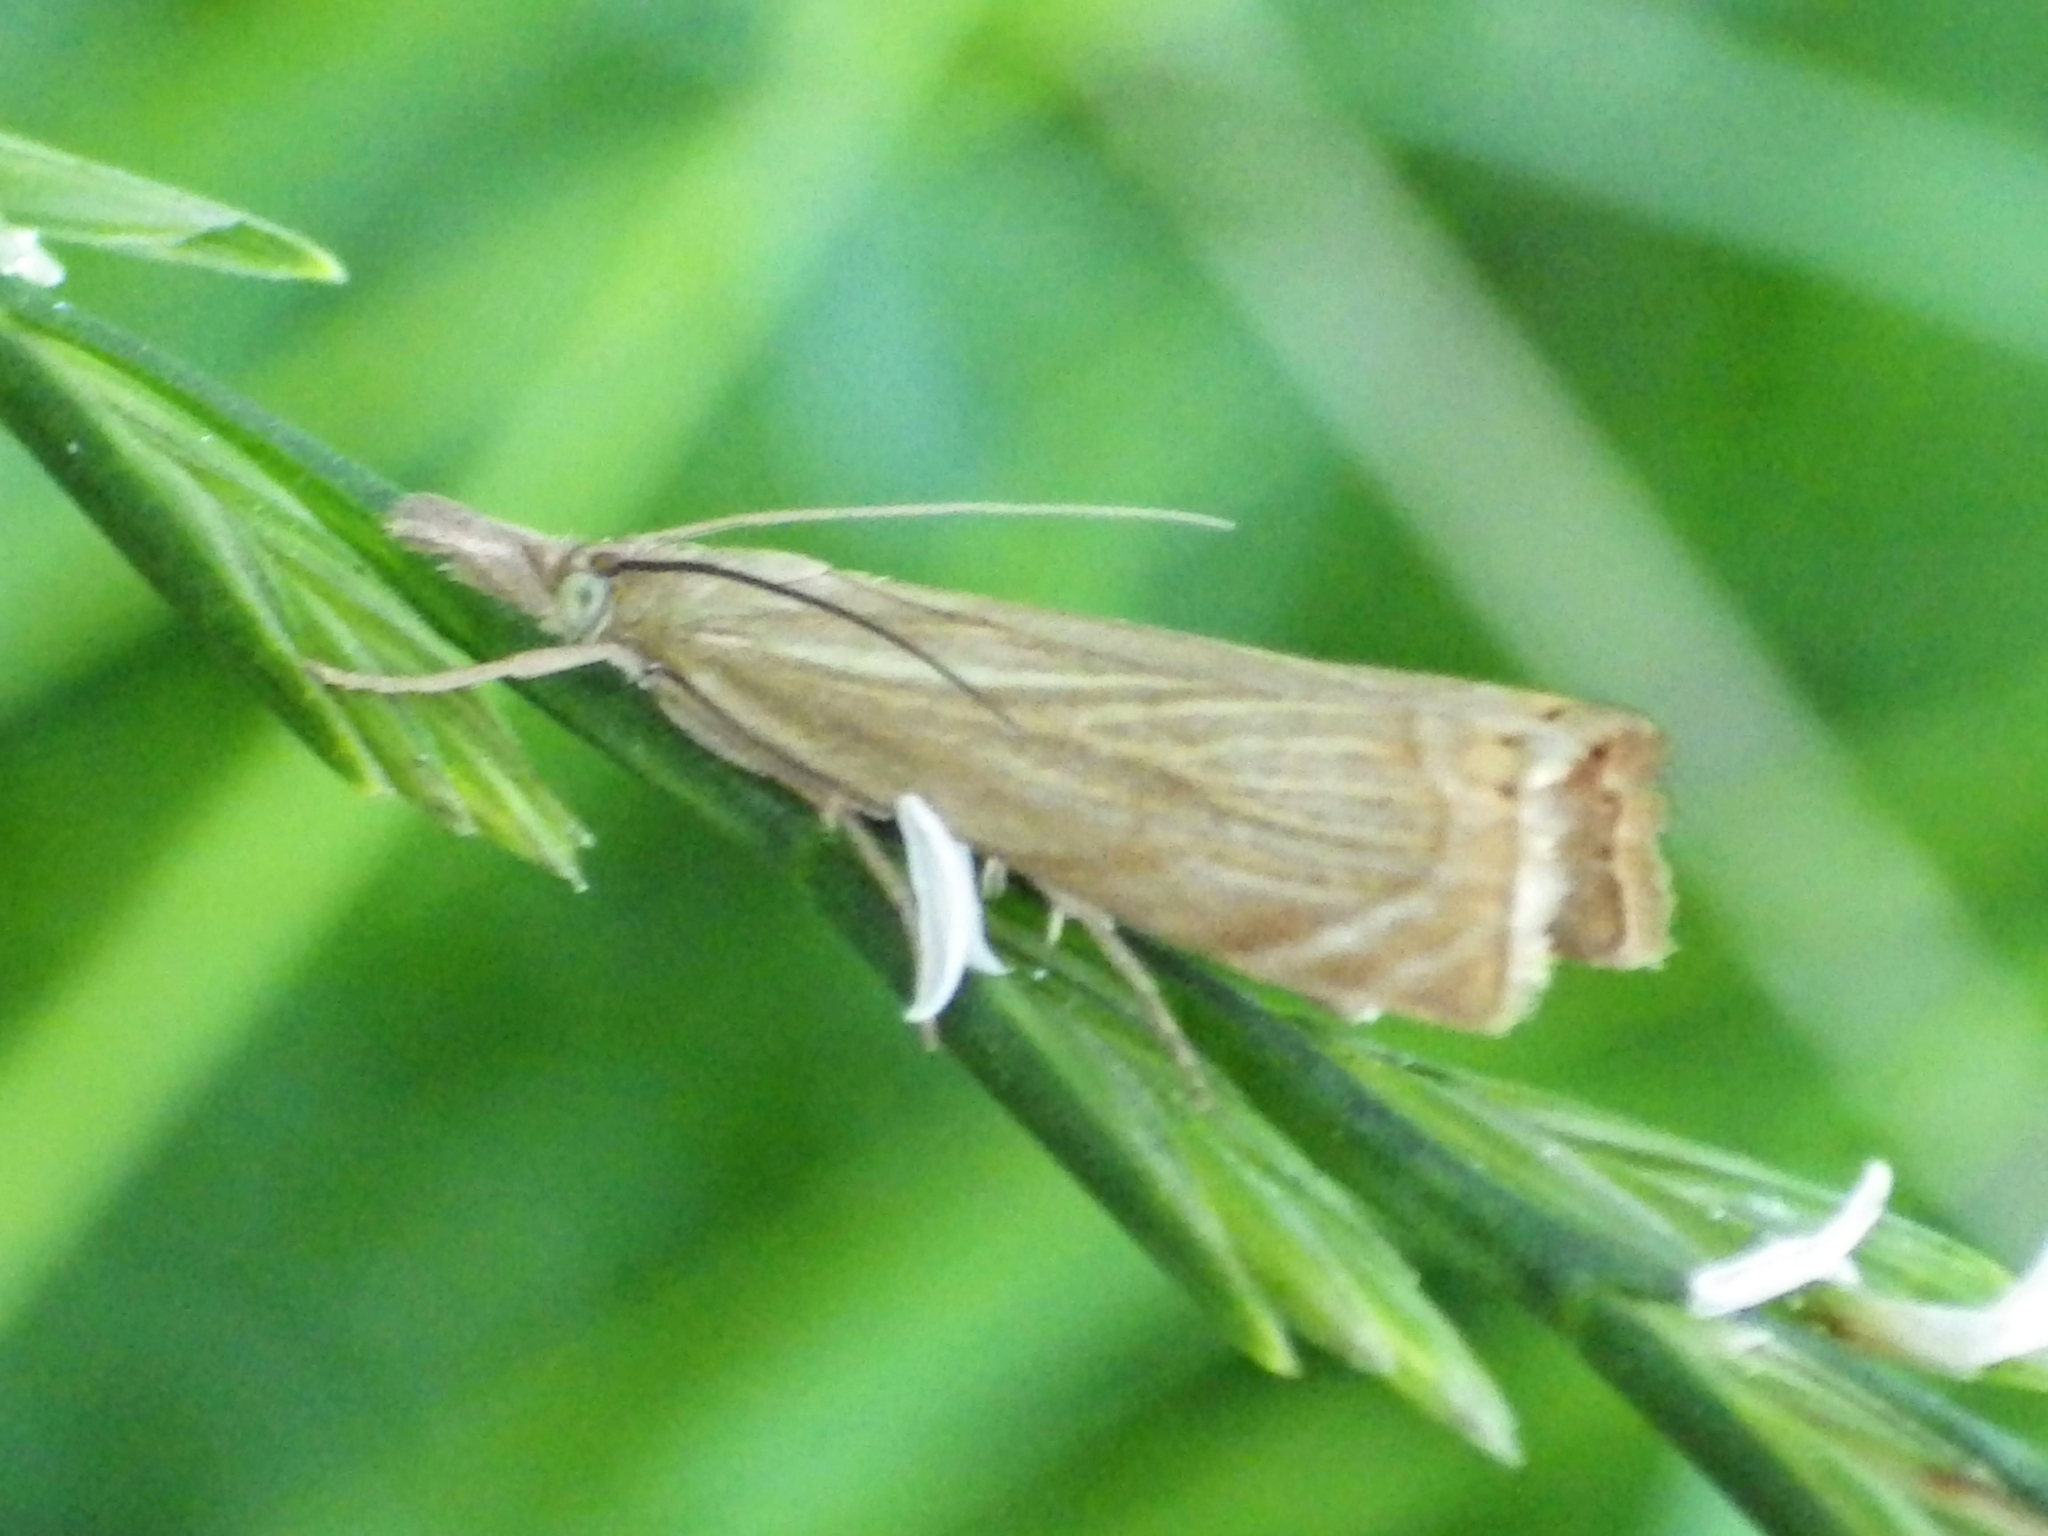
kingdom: Animalia
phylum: Arthropoda
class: Insecta
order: Lepidoptera
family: Crambidae
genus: Chrysoteuchia
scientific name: Chrysoteuchia culmella
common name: Garden grass-veneer
